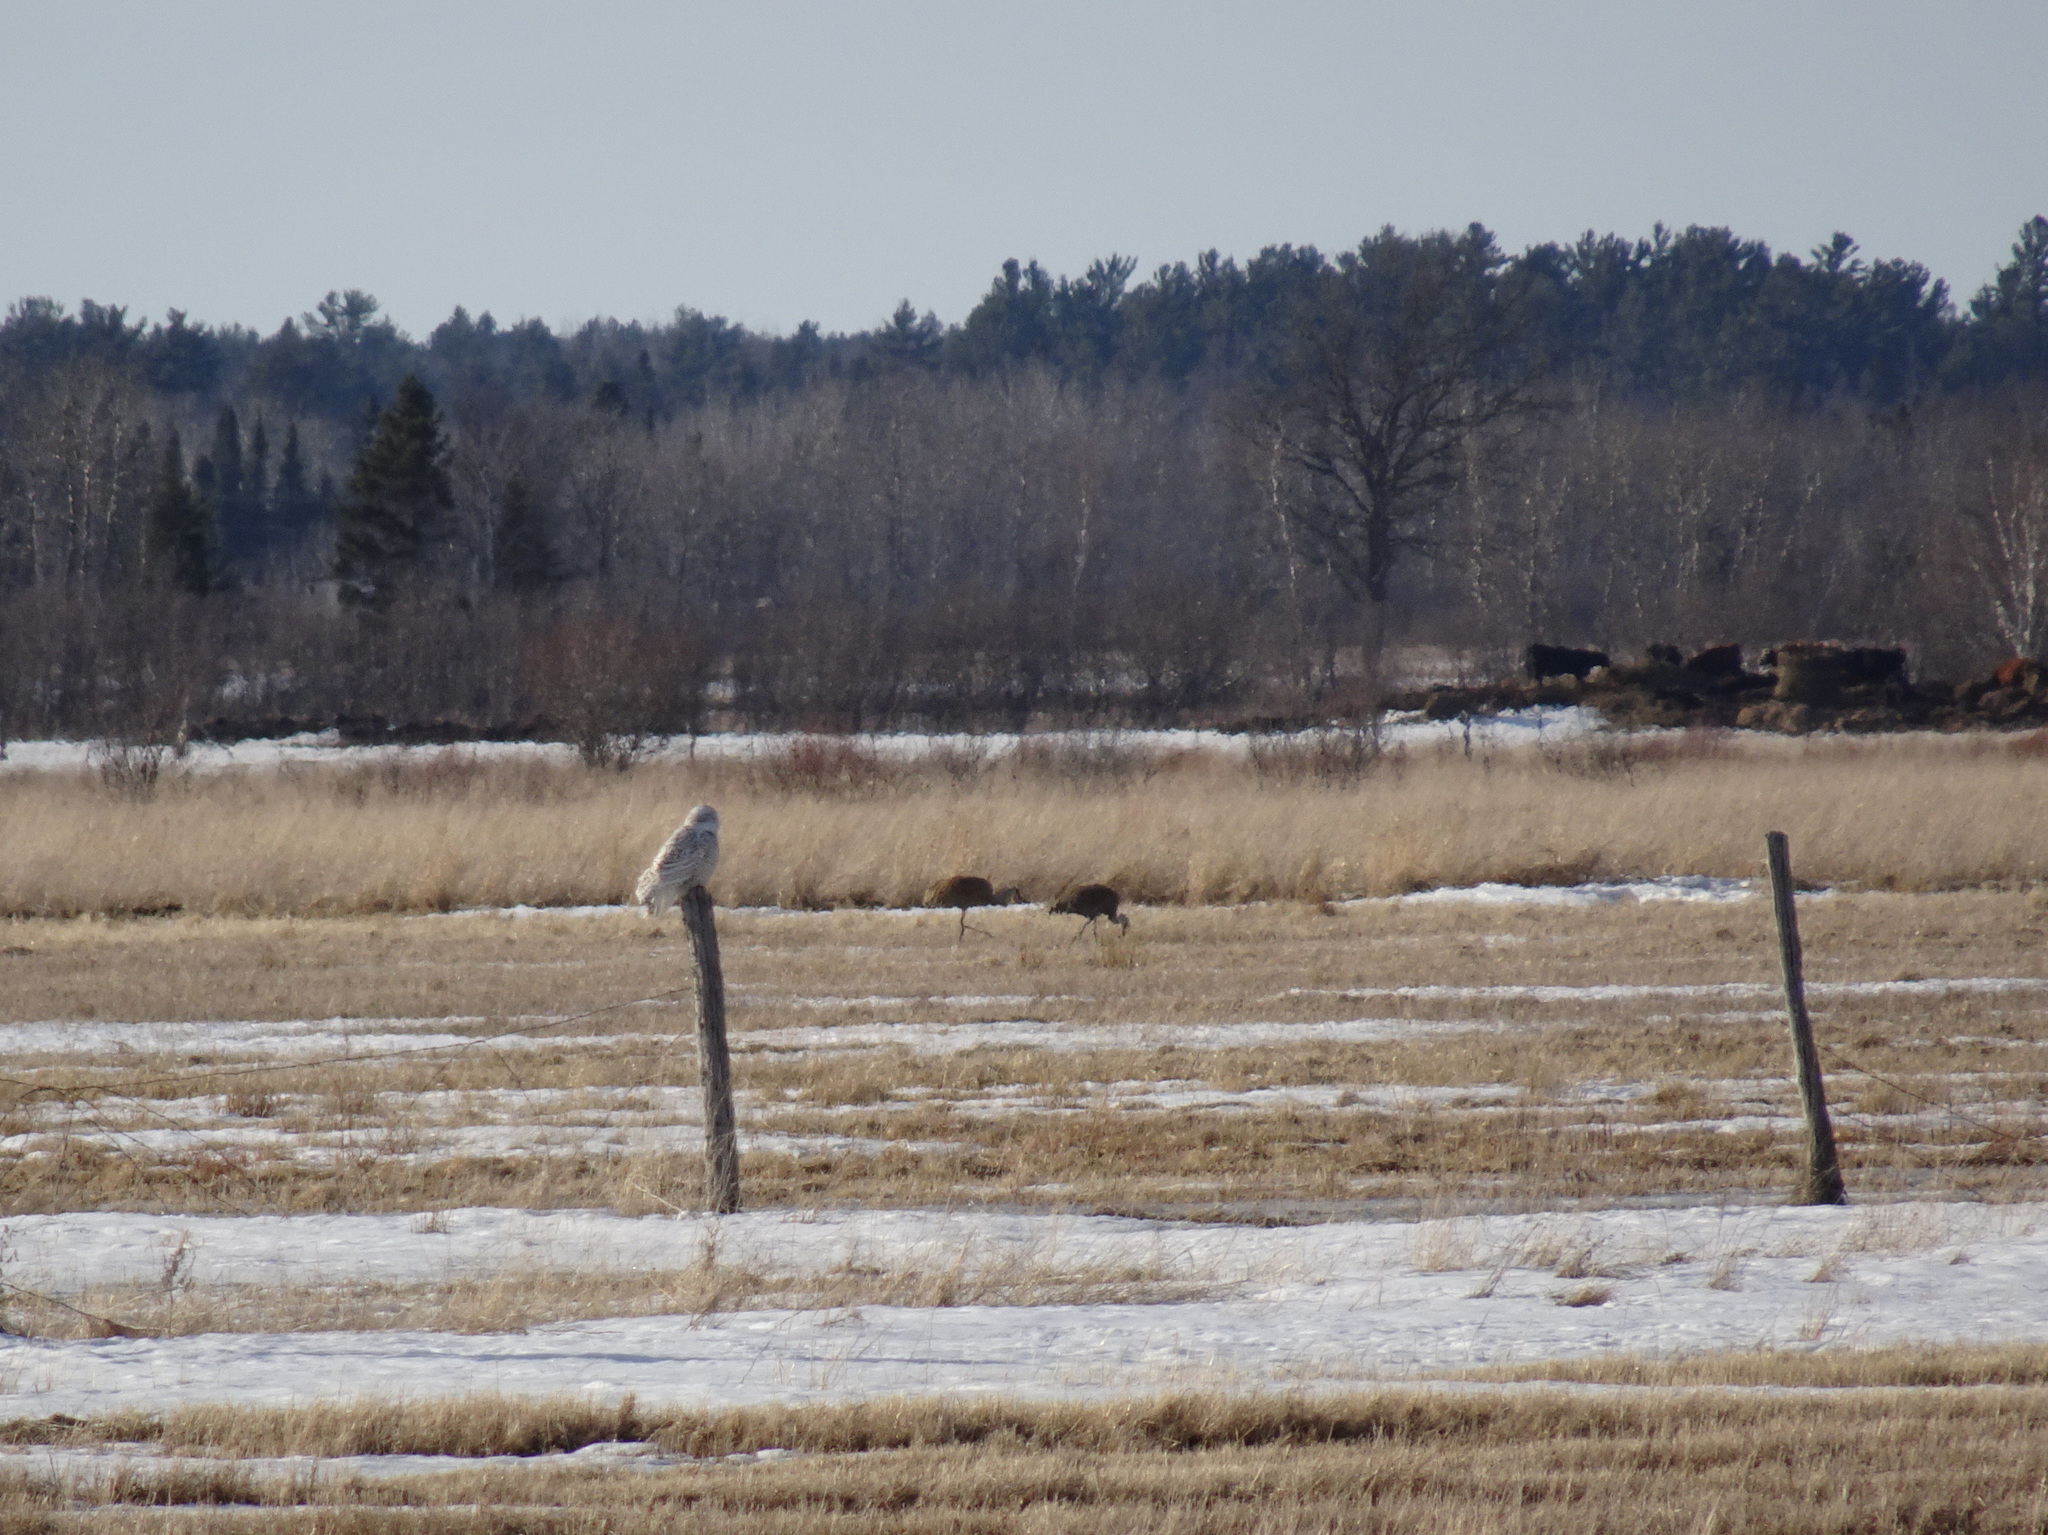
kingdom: Animalia
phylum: Chordata
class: Aves
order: Strigiformes
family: Strigidae
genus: Bubo
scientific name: Bubo scandiacus
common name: Snowy owl
